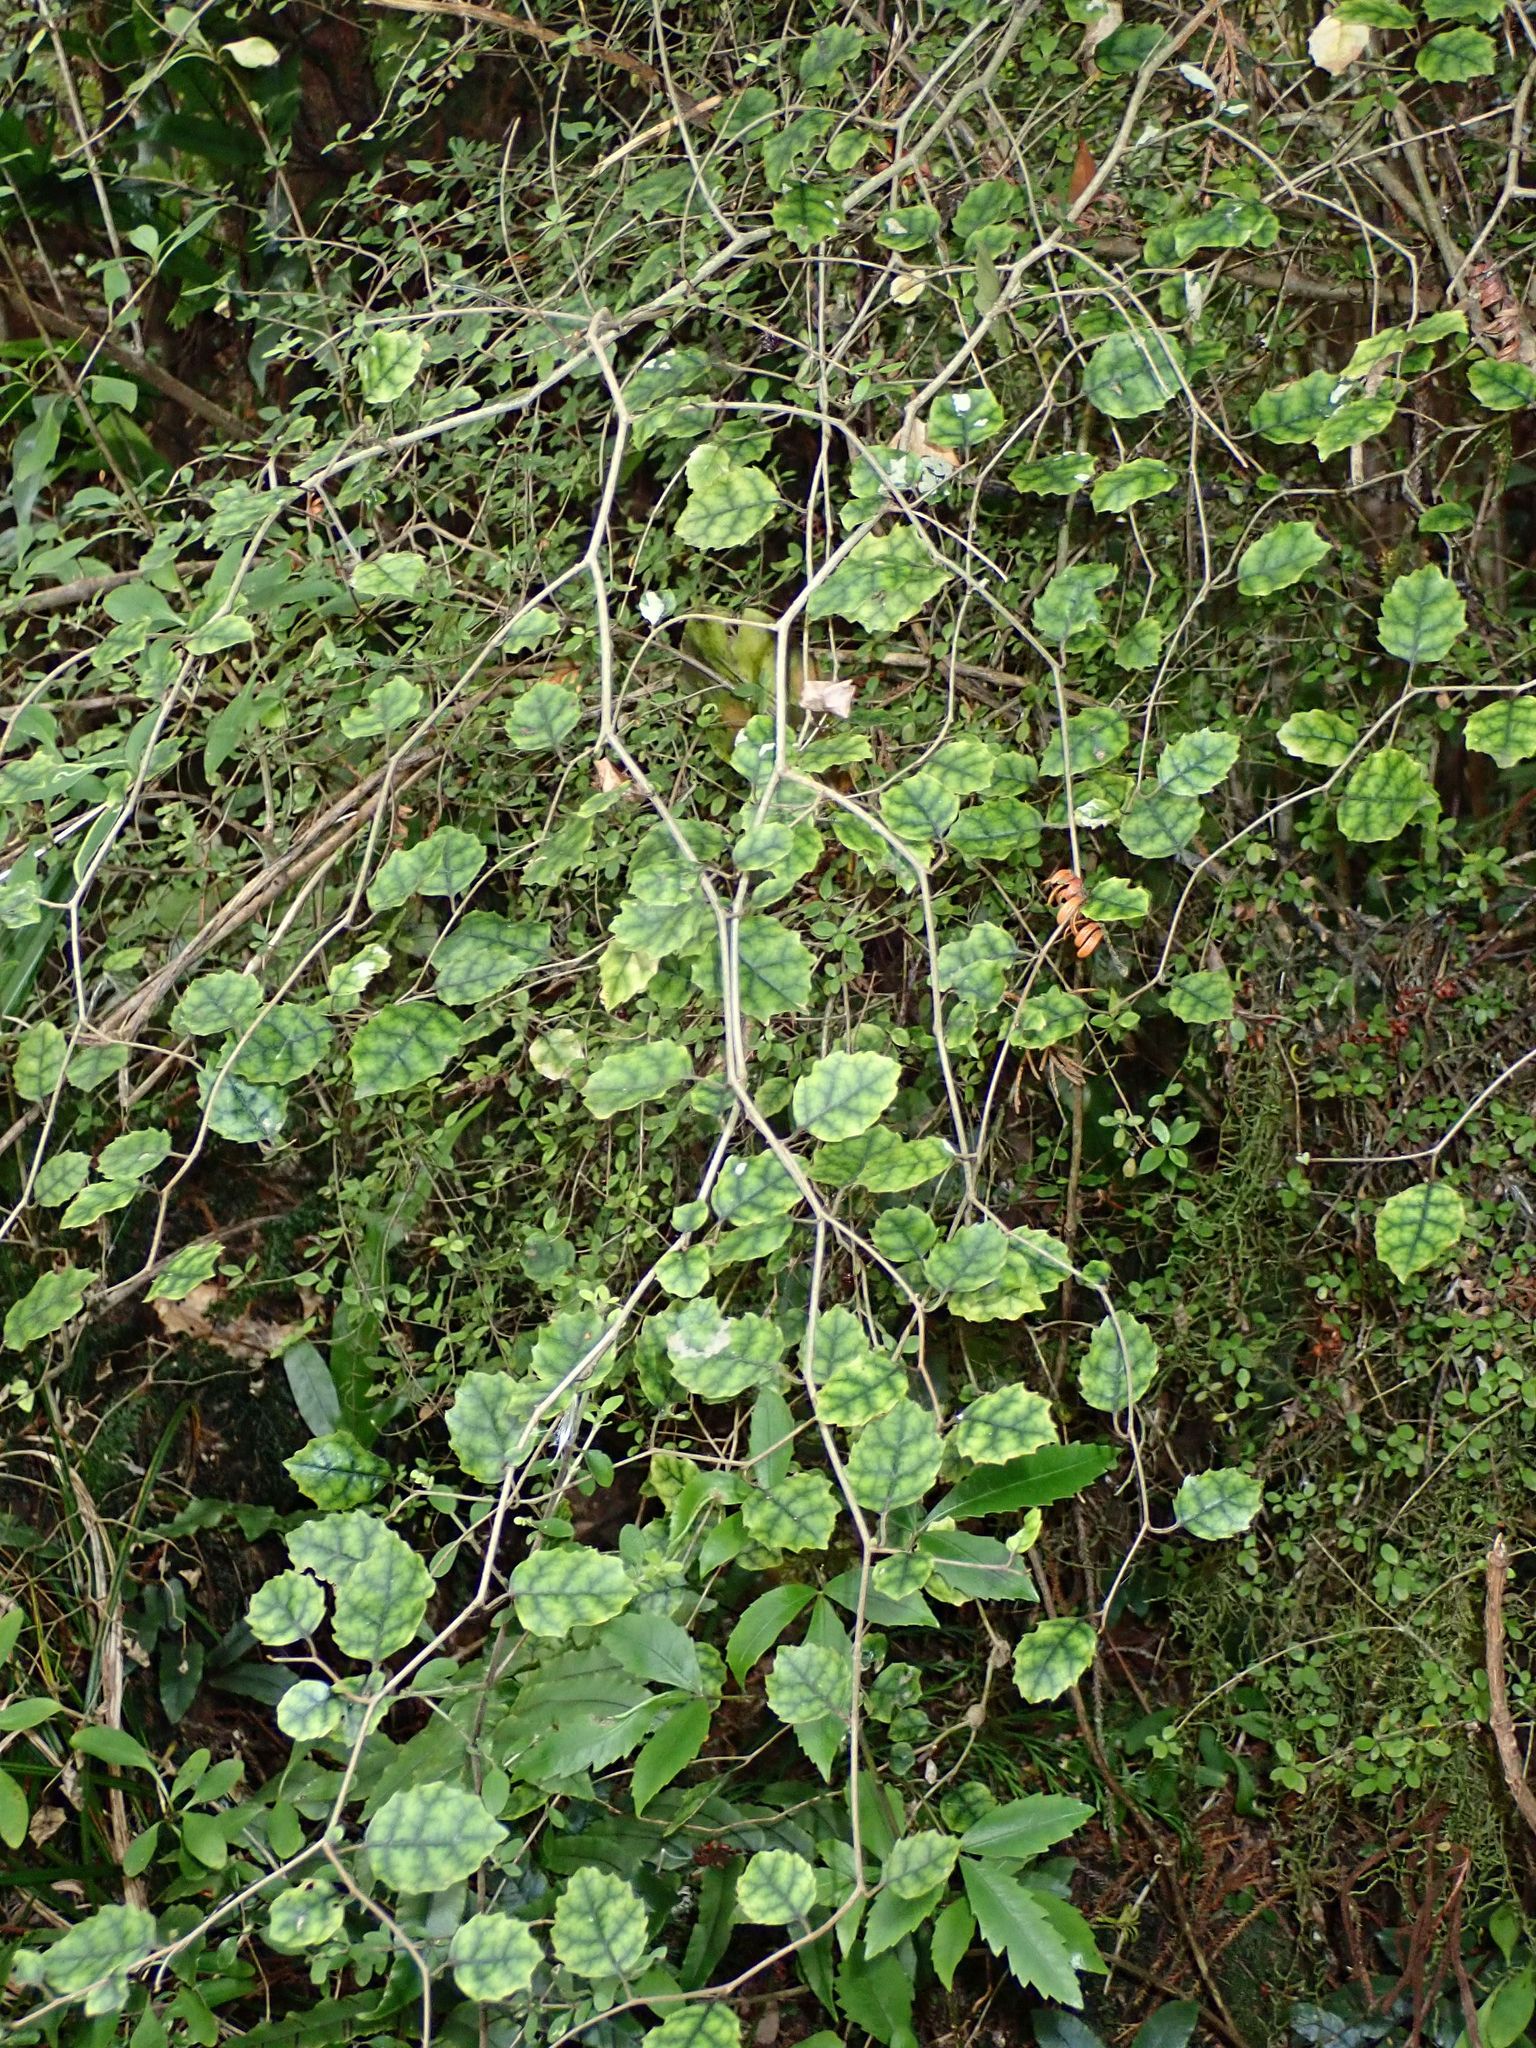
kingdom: Plantae
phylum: Tracheophyta
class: Magnoliopsida
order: Asterales
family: Rousseaceae
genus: Carpodetus
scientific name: Carpodetus serratus
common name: White mapau
